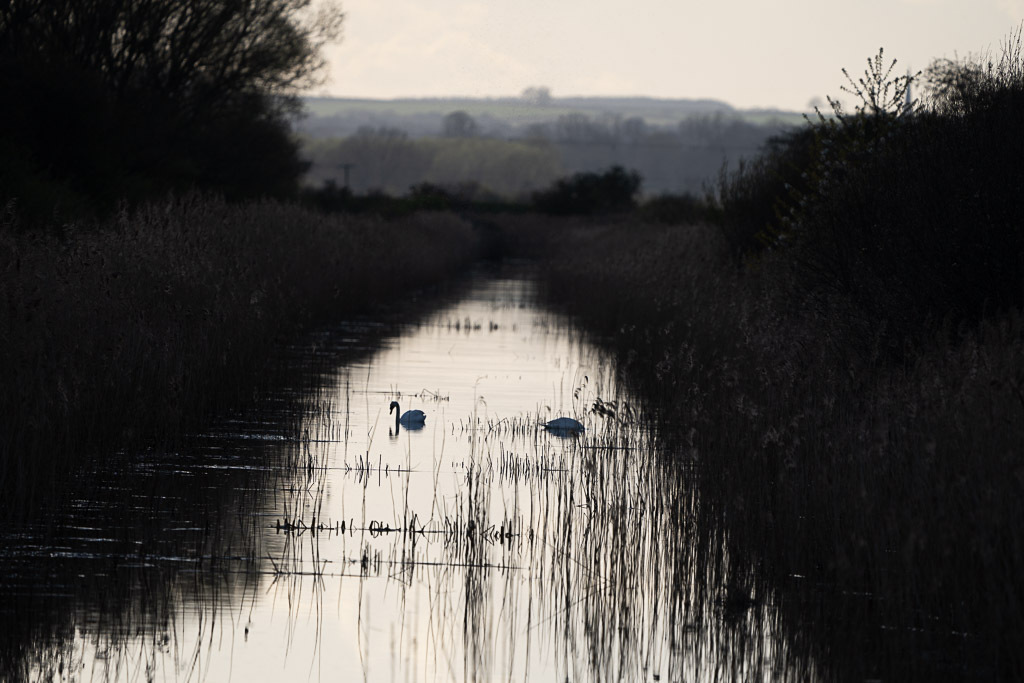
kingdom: Animalia
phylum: Chordata
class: Aves
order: Anseriformes
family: Anatidae
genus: Cygnus
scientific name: Cygnus olor
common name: Mute swan
